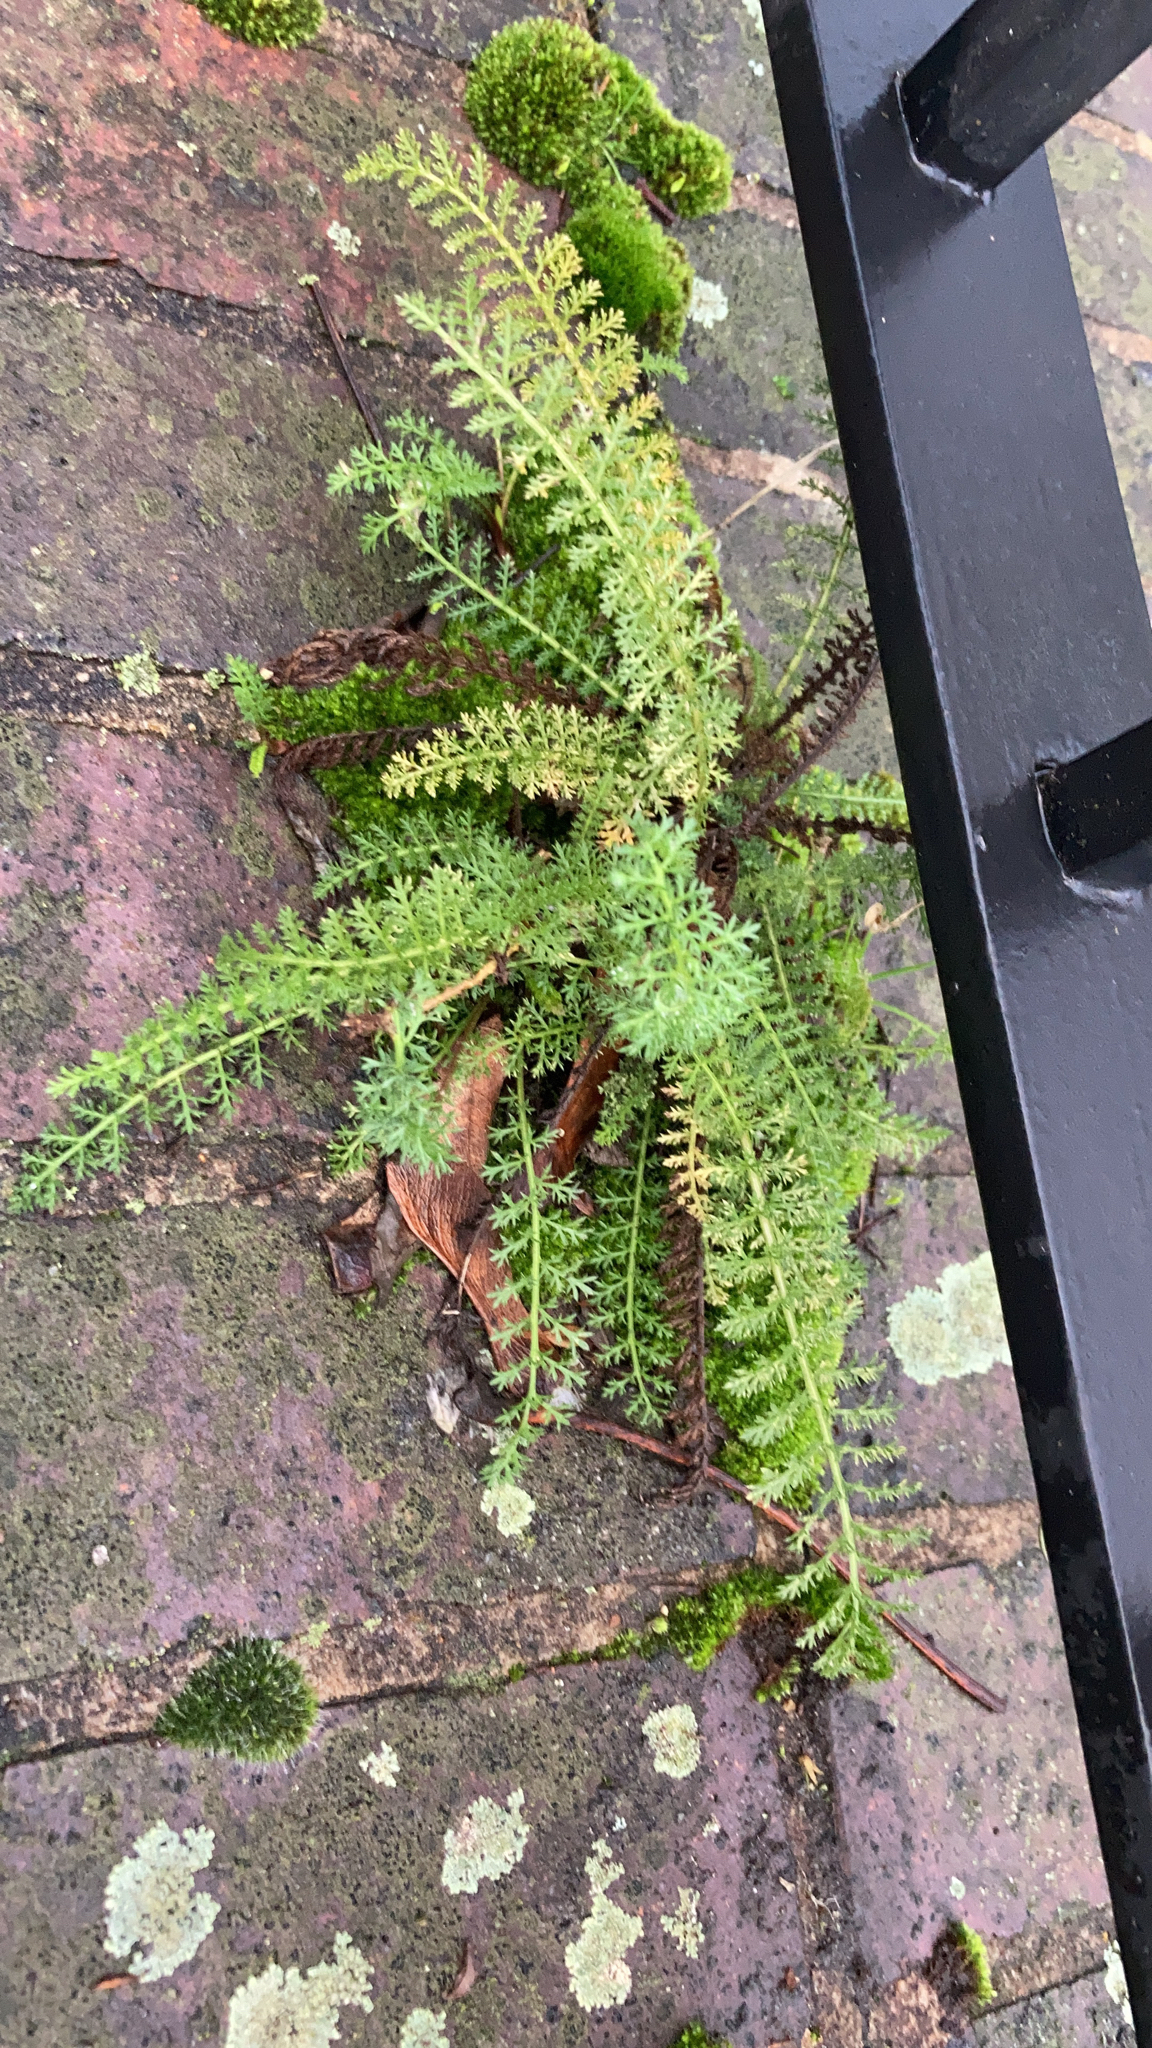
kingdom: Plantae
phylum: Tracheophyta
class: Magnoliopsida
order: Asterales
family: Asteraceae
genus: Achillea
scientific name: Achillea millefolium
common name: Yarrow
